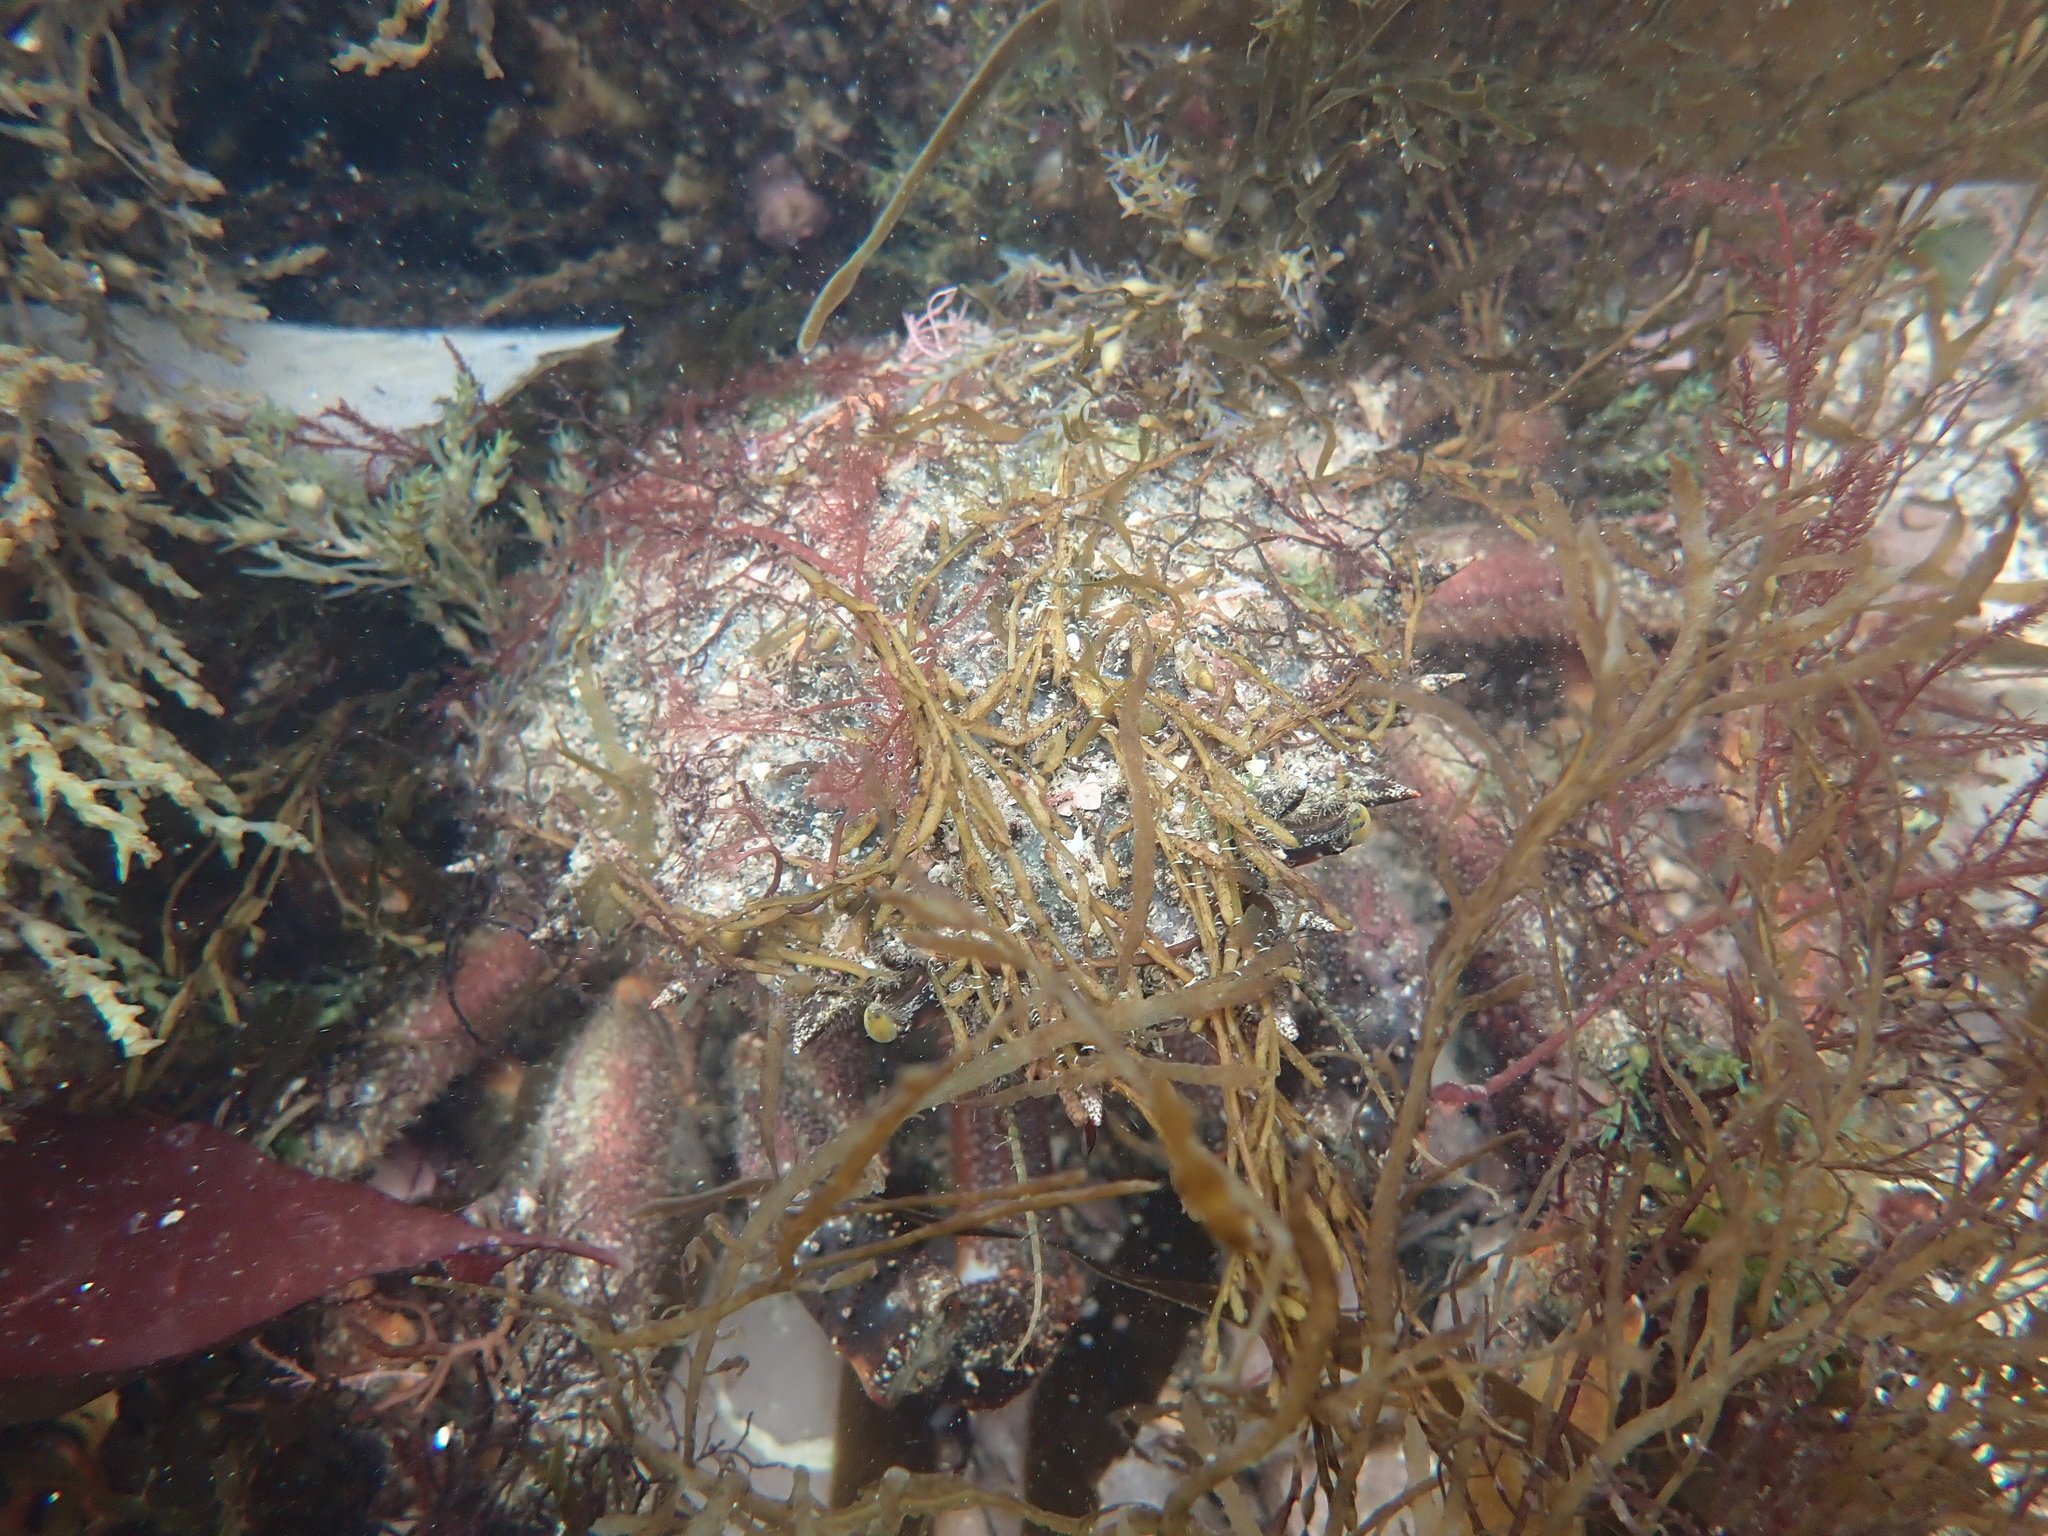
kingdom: Animalia
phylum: Arthropoda
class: Malacostraca
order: Decapoda
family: Majidae
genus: Maja
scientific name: Maja brachydactyla
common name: Common spider crab
